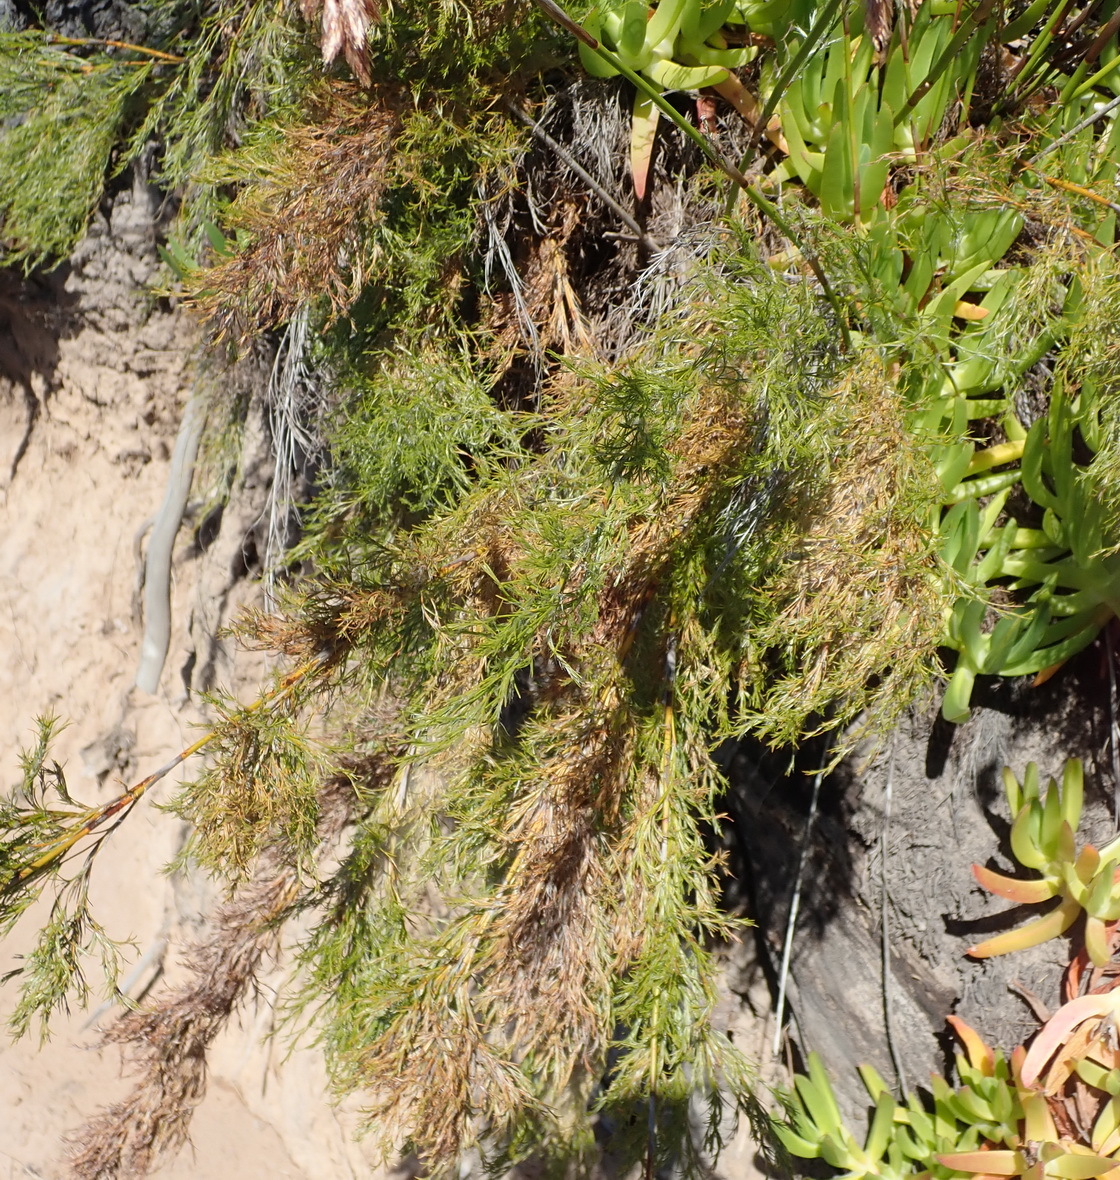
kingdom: Plantae
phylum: Tracheophyta
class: Liliopsida
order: Poales
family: Restionaceae
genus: Thamnochortus
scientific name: Thamnochortus glaber
